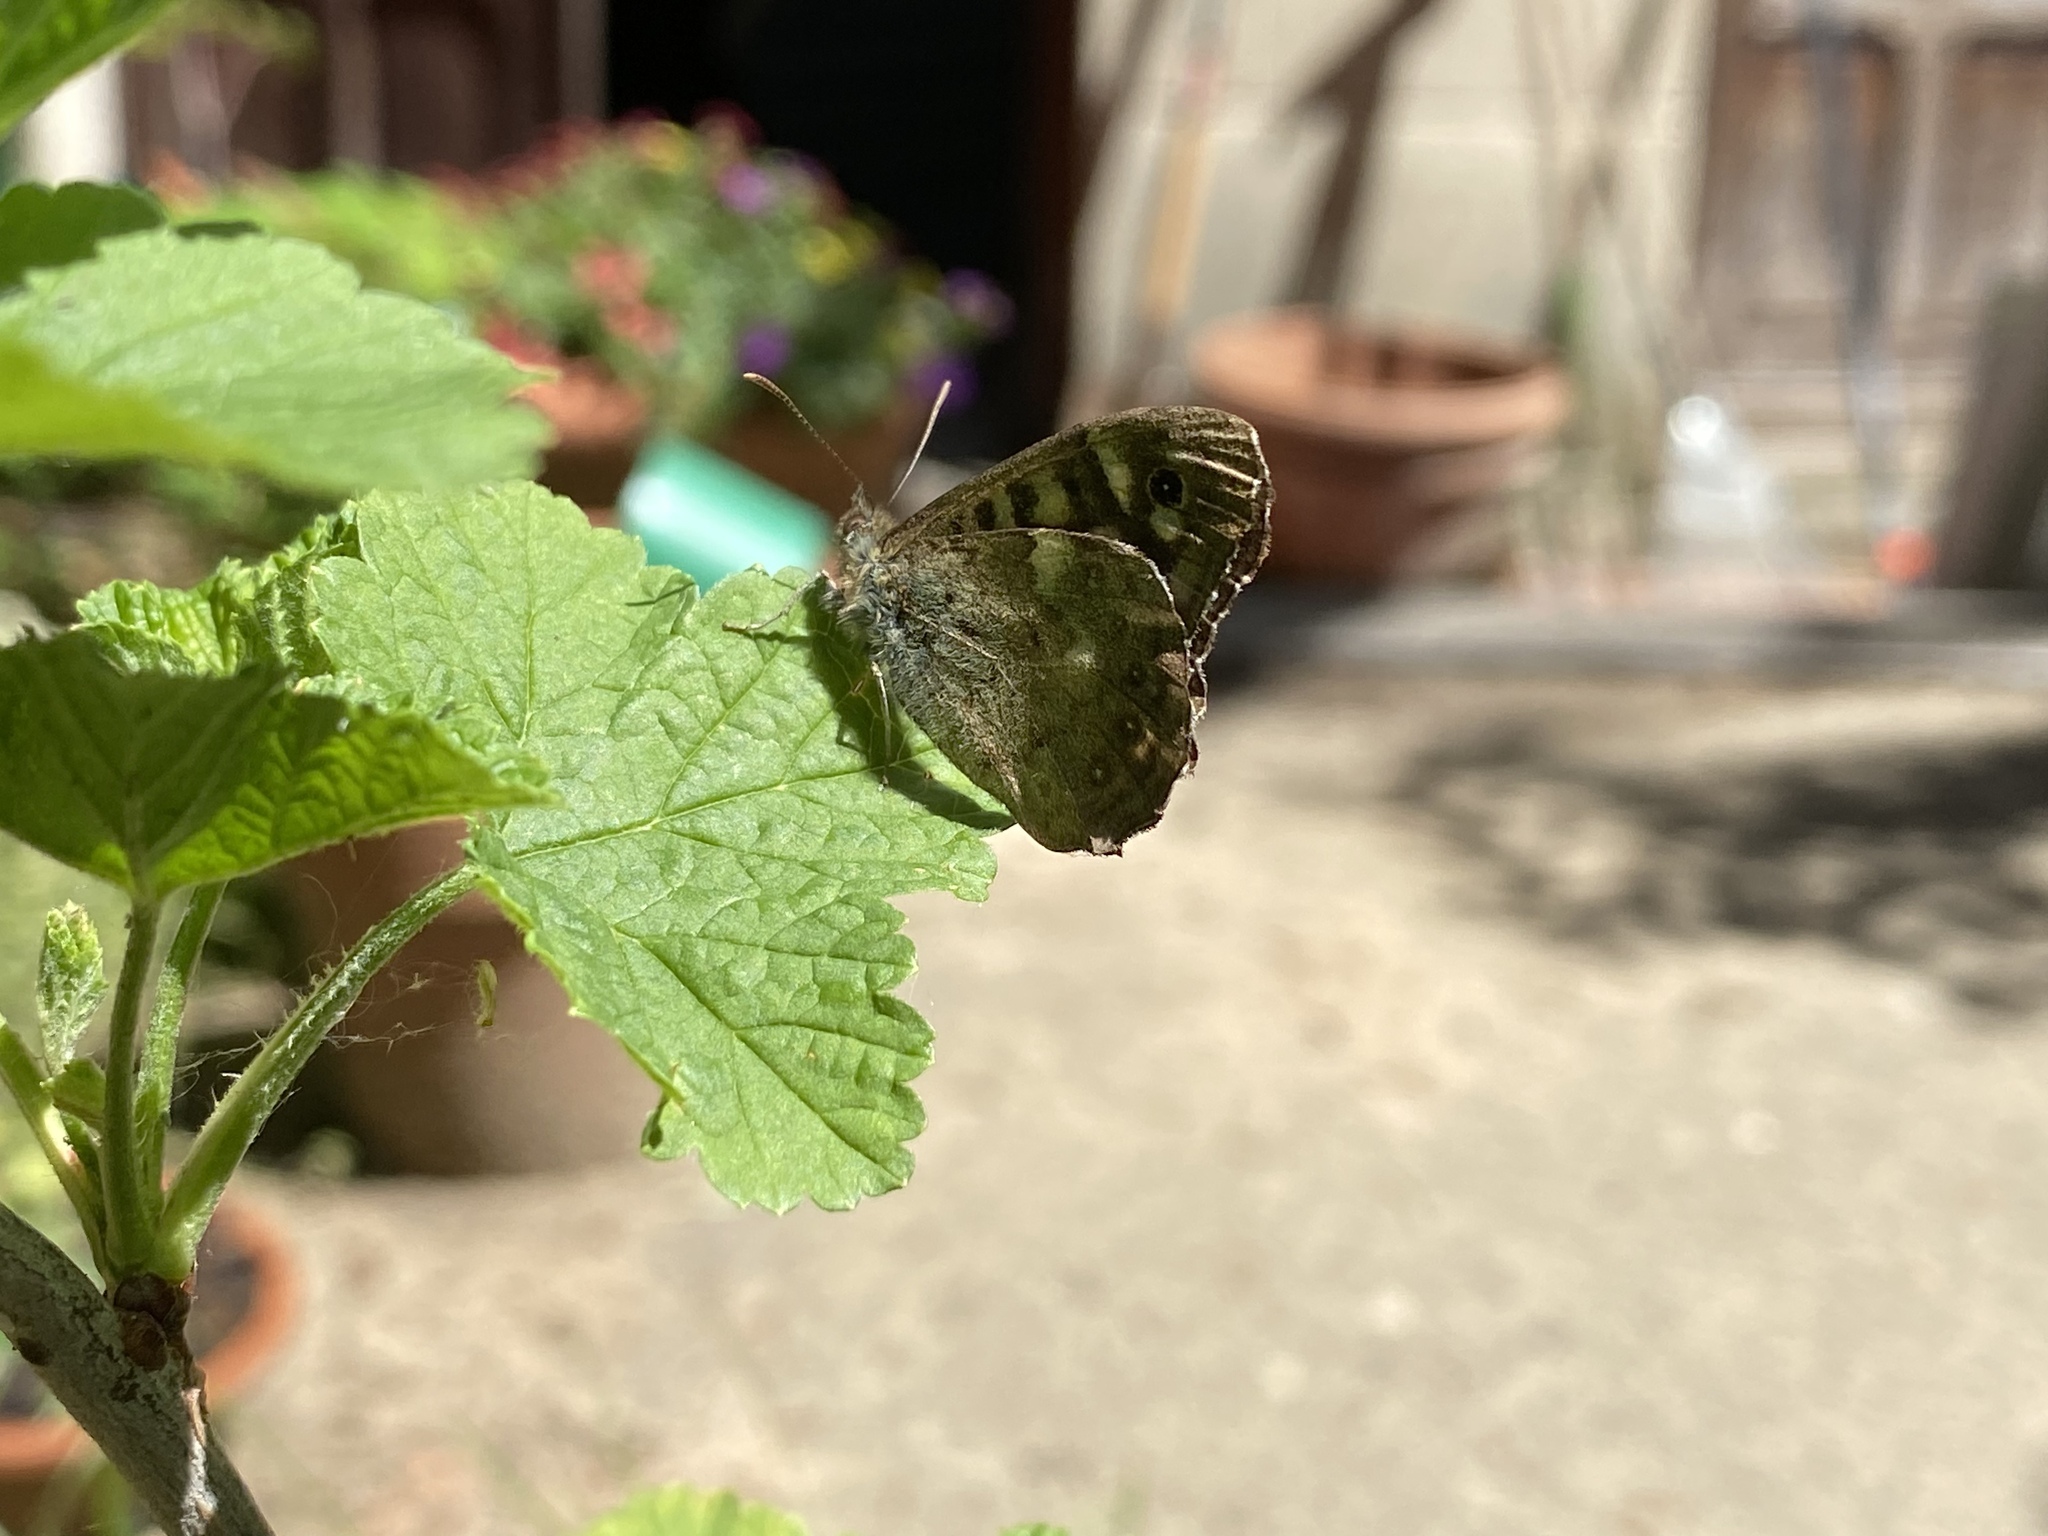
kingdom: Animalia
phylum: Arthropoda
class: Insecta
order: Lepidoptera
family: Nymphalidae
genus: Pararge
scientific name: Pararge aegeria
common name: Speckled wood
